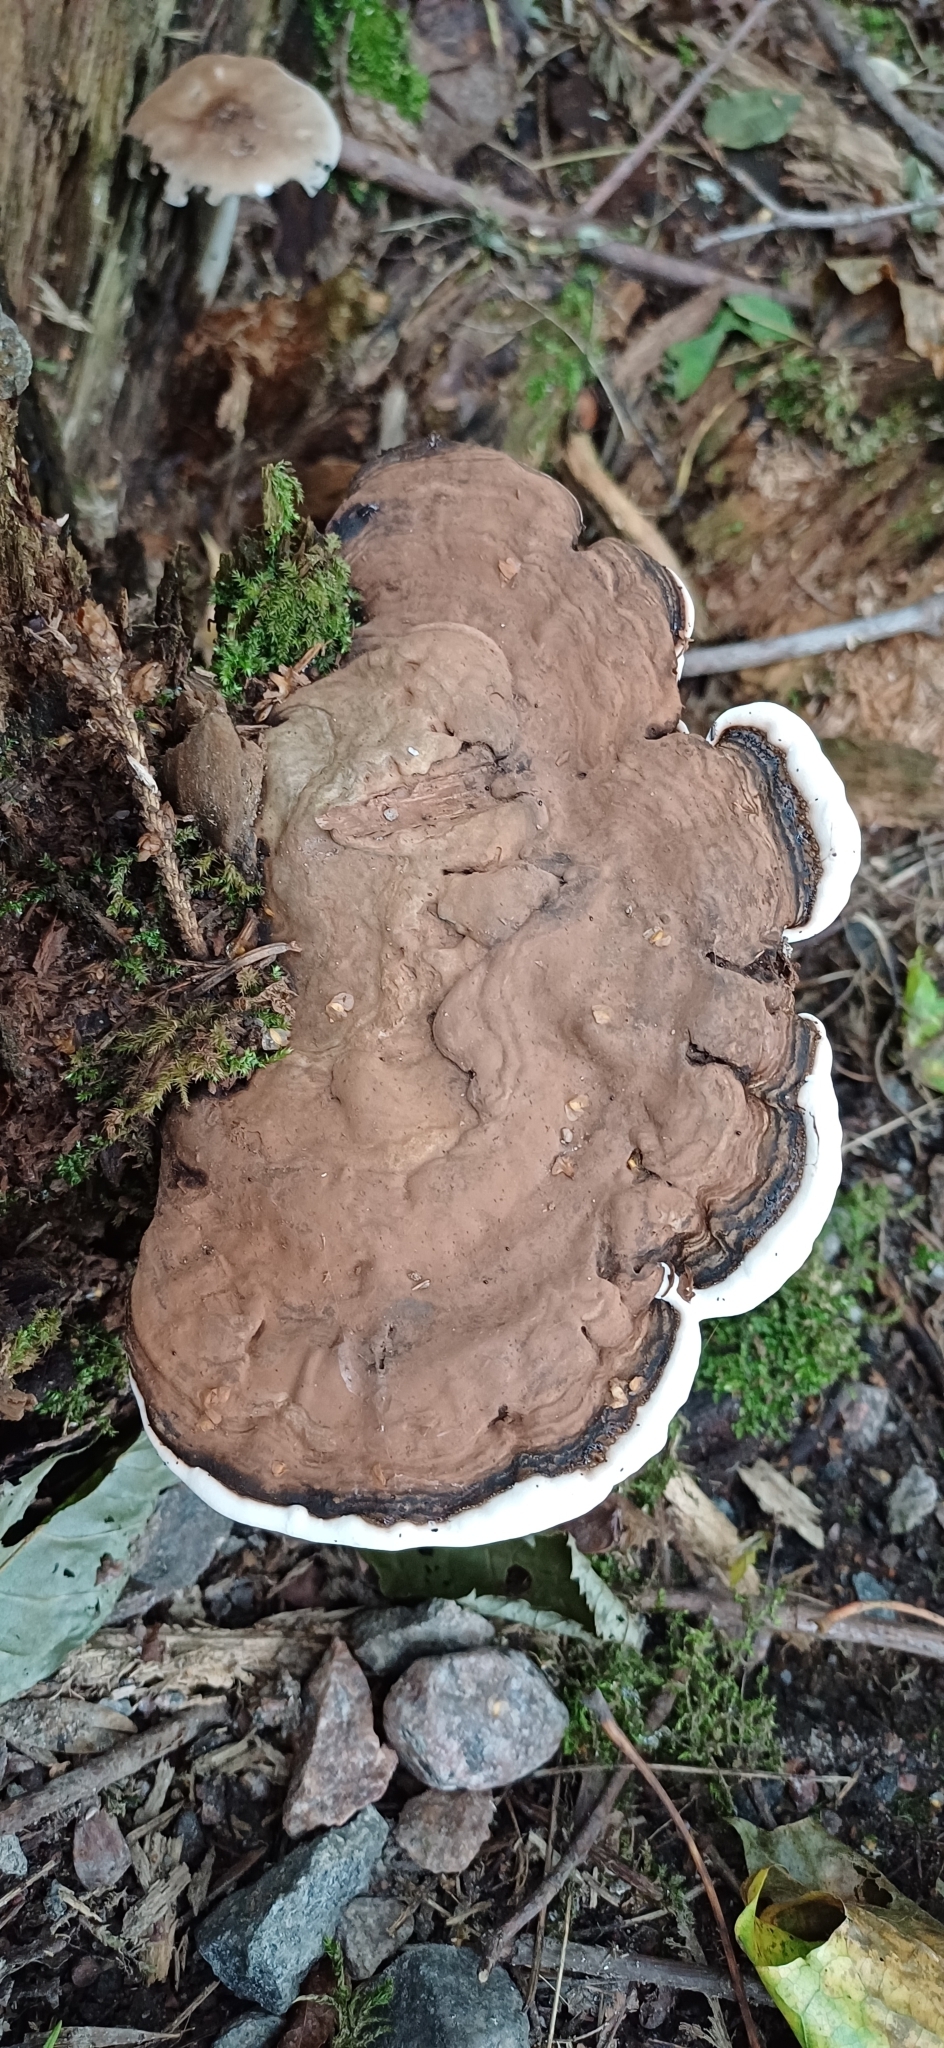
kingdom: Fungi
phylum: Basidiomycota
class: Agaricomycetes
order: Polyporales
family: Polyporaceae
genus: Ganoderma
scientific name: Ganoderma applanatum
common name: Artist's bracket
